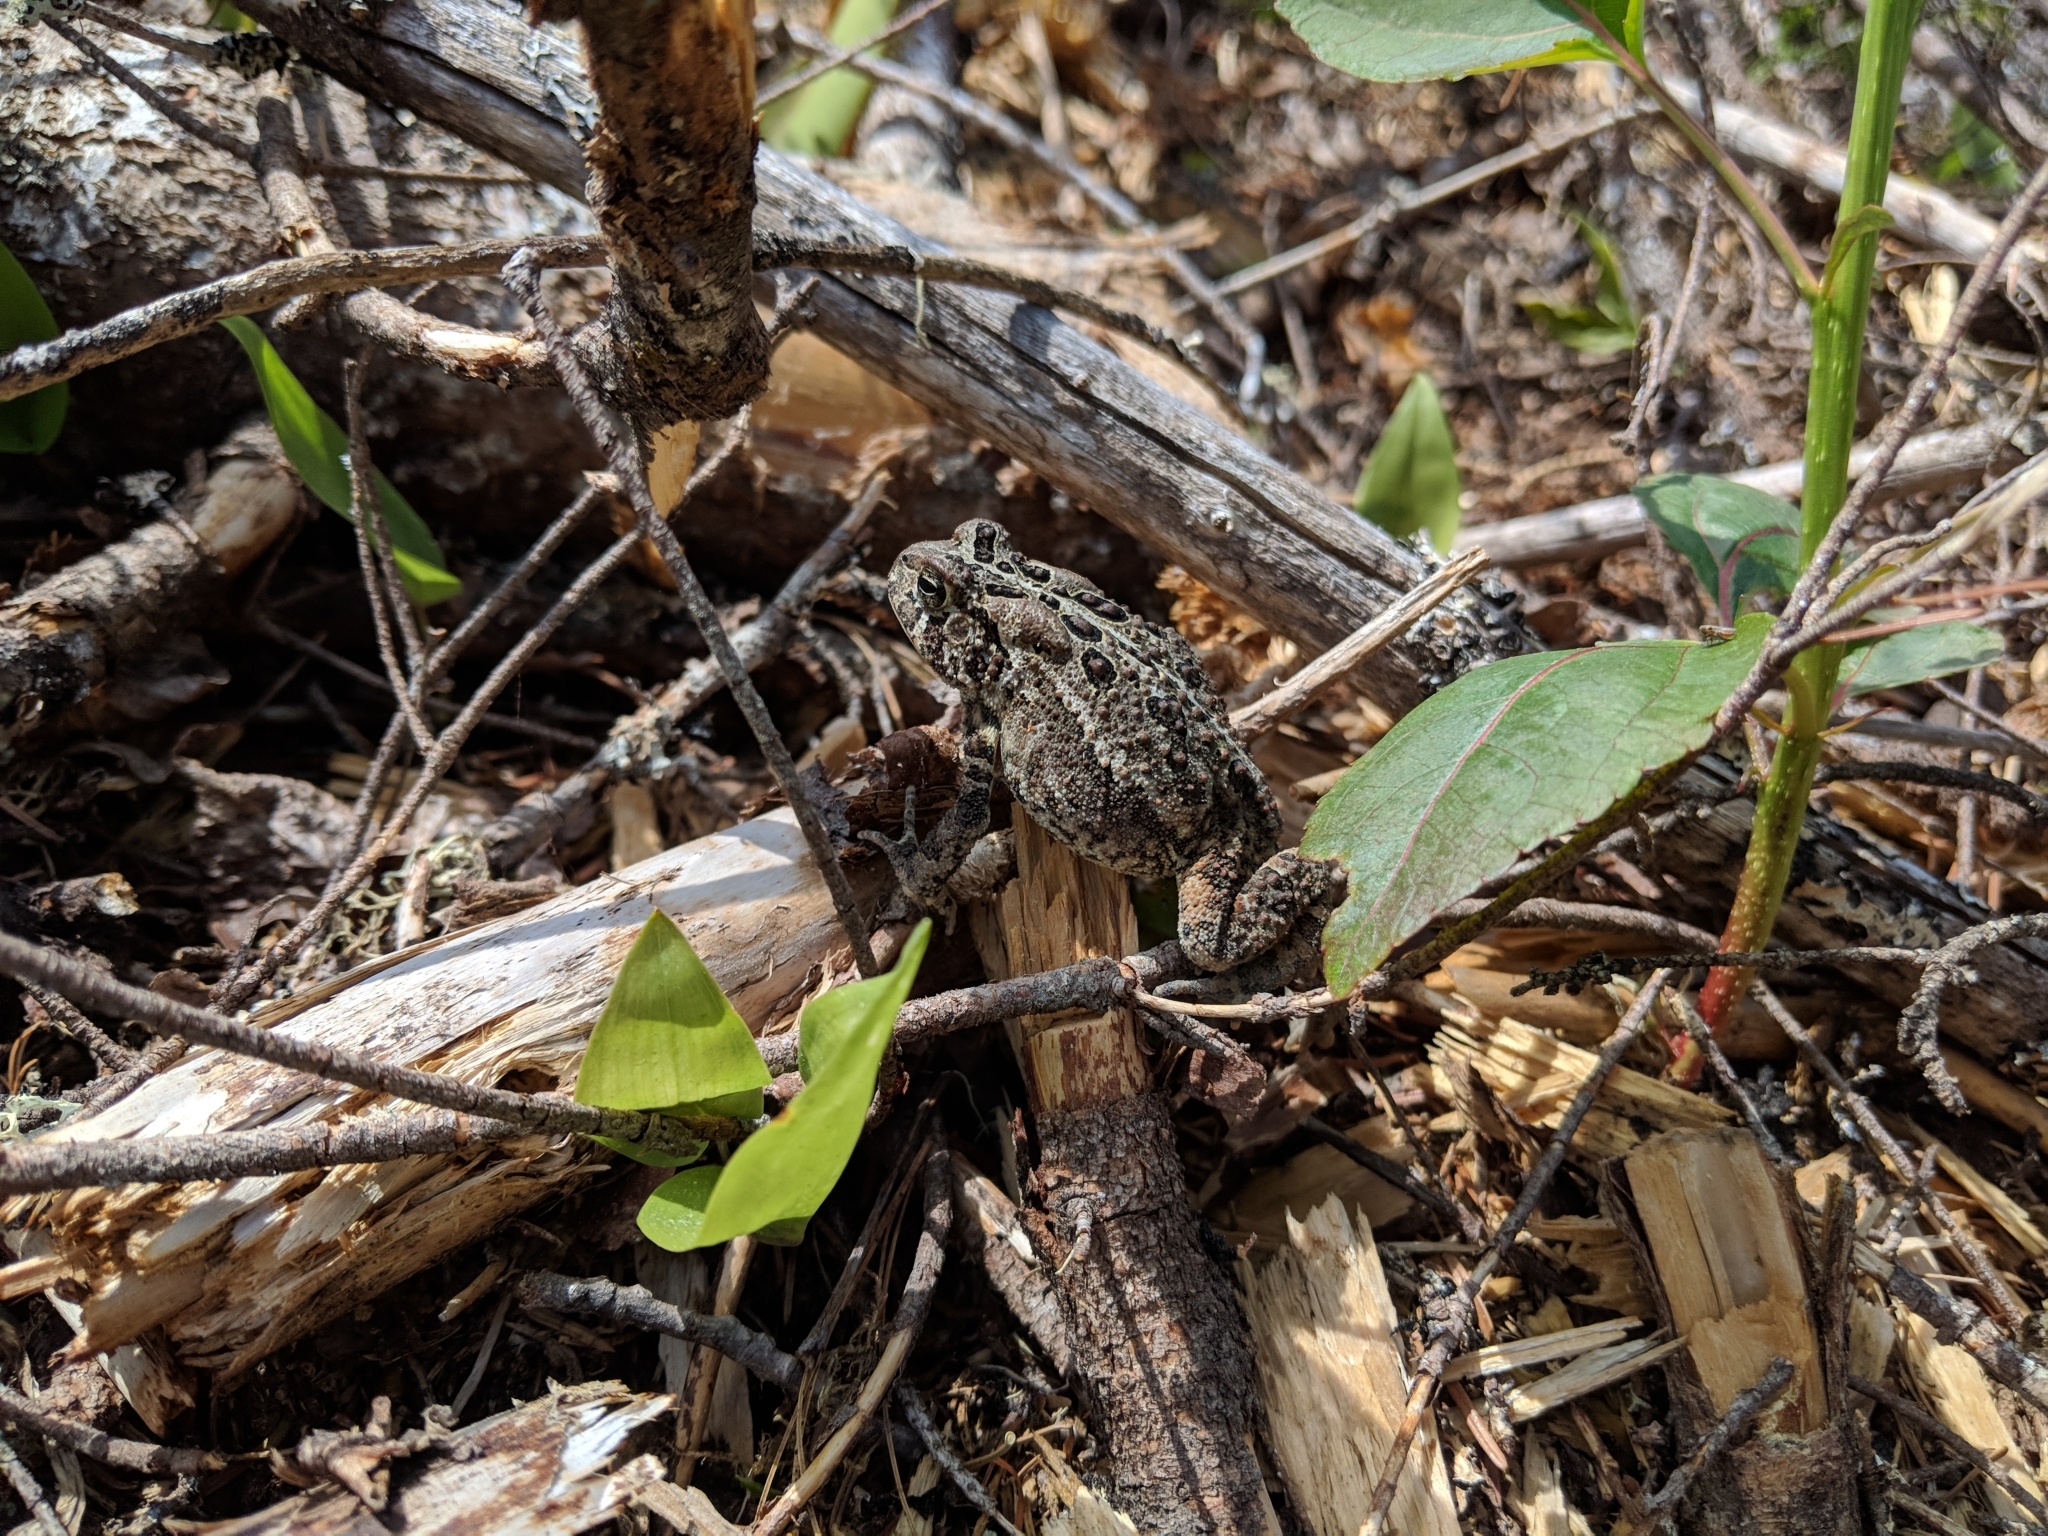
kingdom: Animalia
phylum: Chordata
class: Amphibia
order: Anura
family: Bufonidae
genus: Anaxyrus
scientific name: Anaxyrus americanus
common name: American toad
